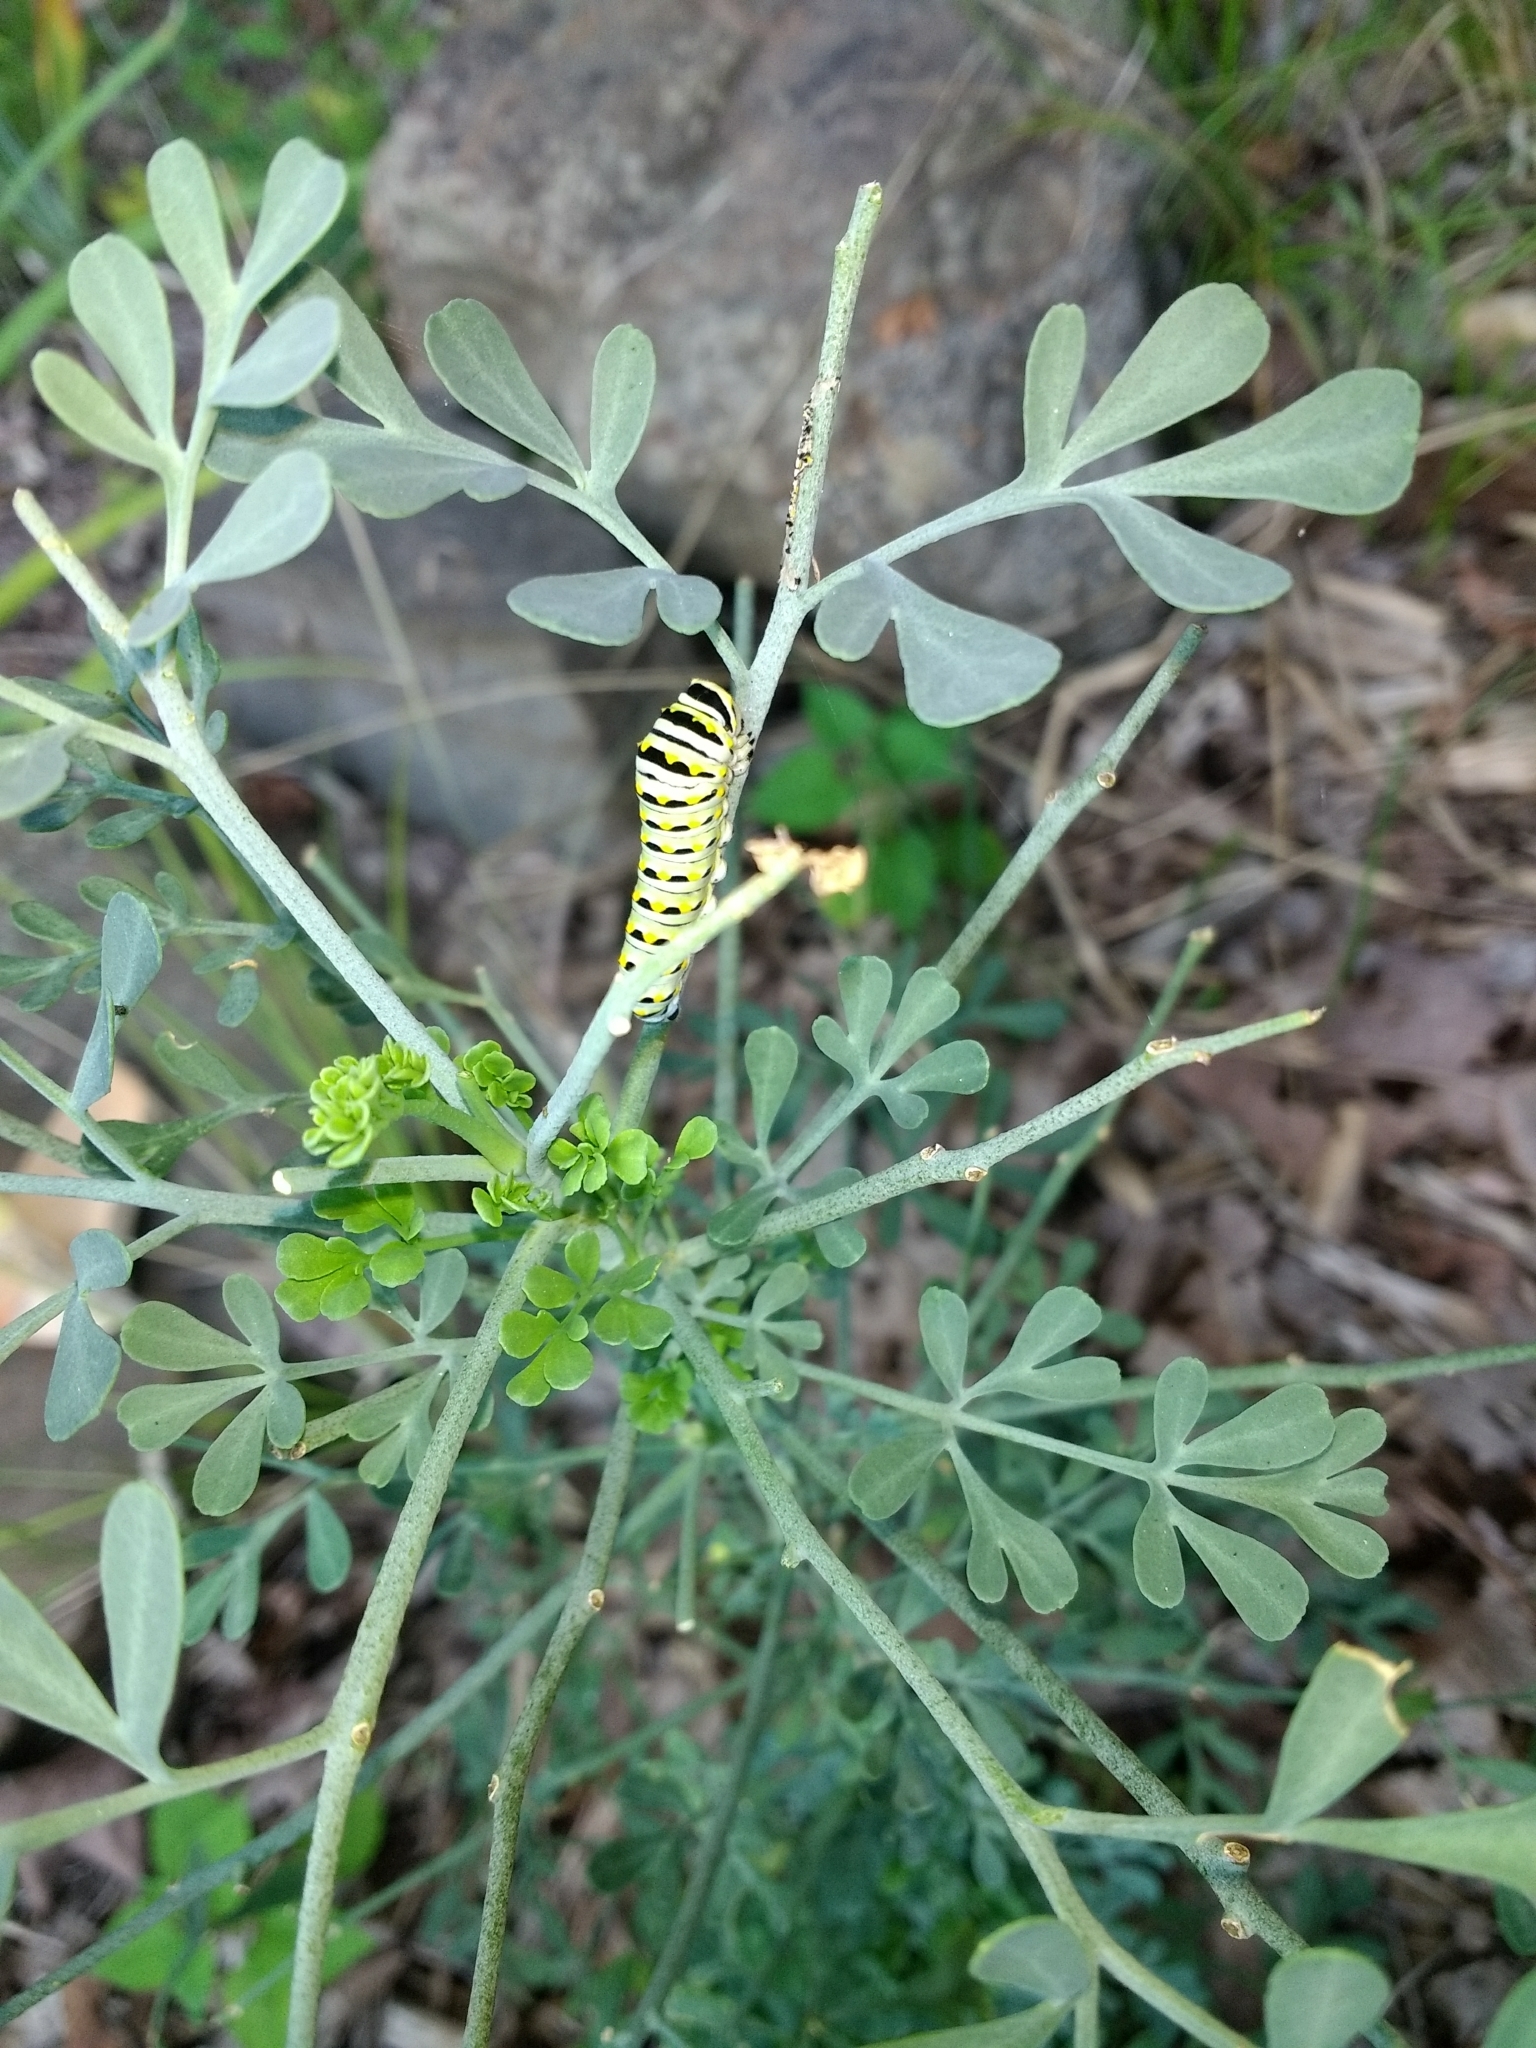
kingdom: Animalia
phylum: Arthropoda
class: Insecta
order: Lepidoptera
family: Papilionidae
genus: Papilio
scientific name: Papilio polyxenes
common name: Black swallowtail
